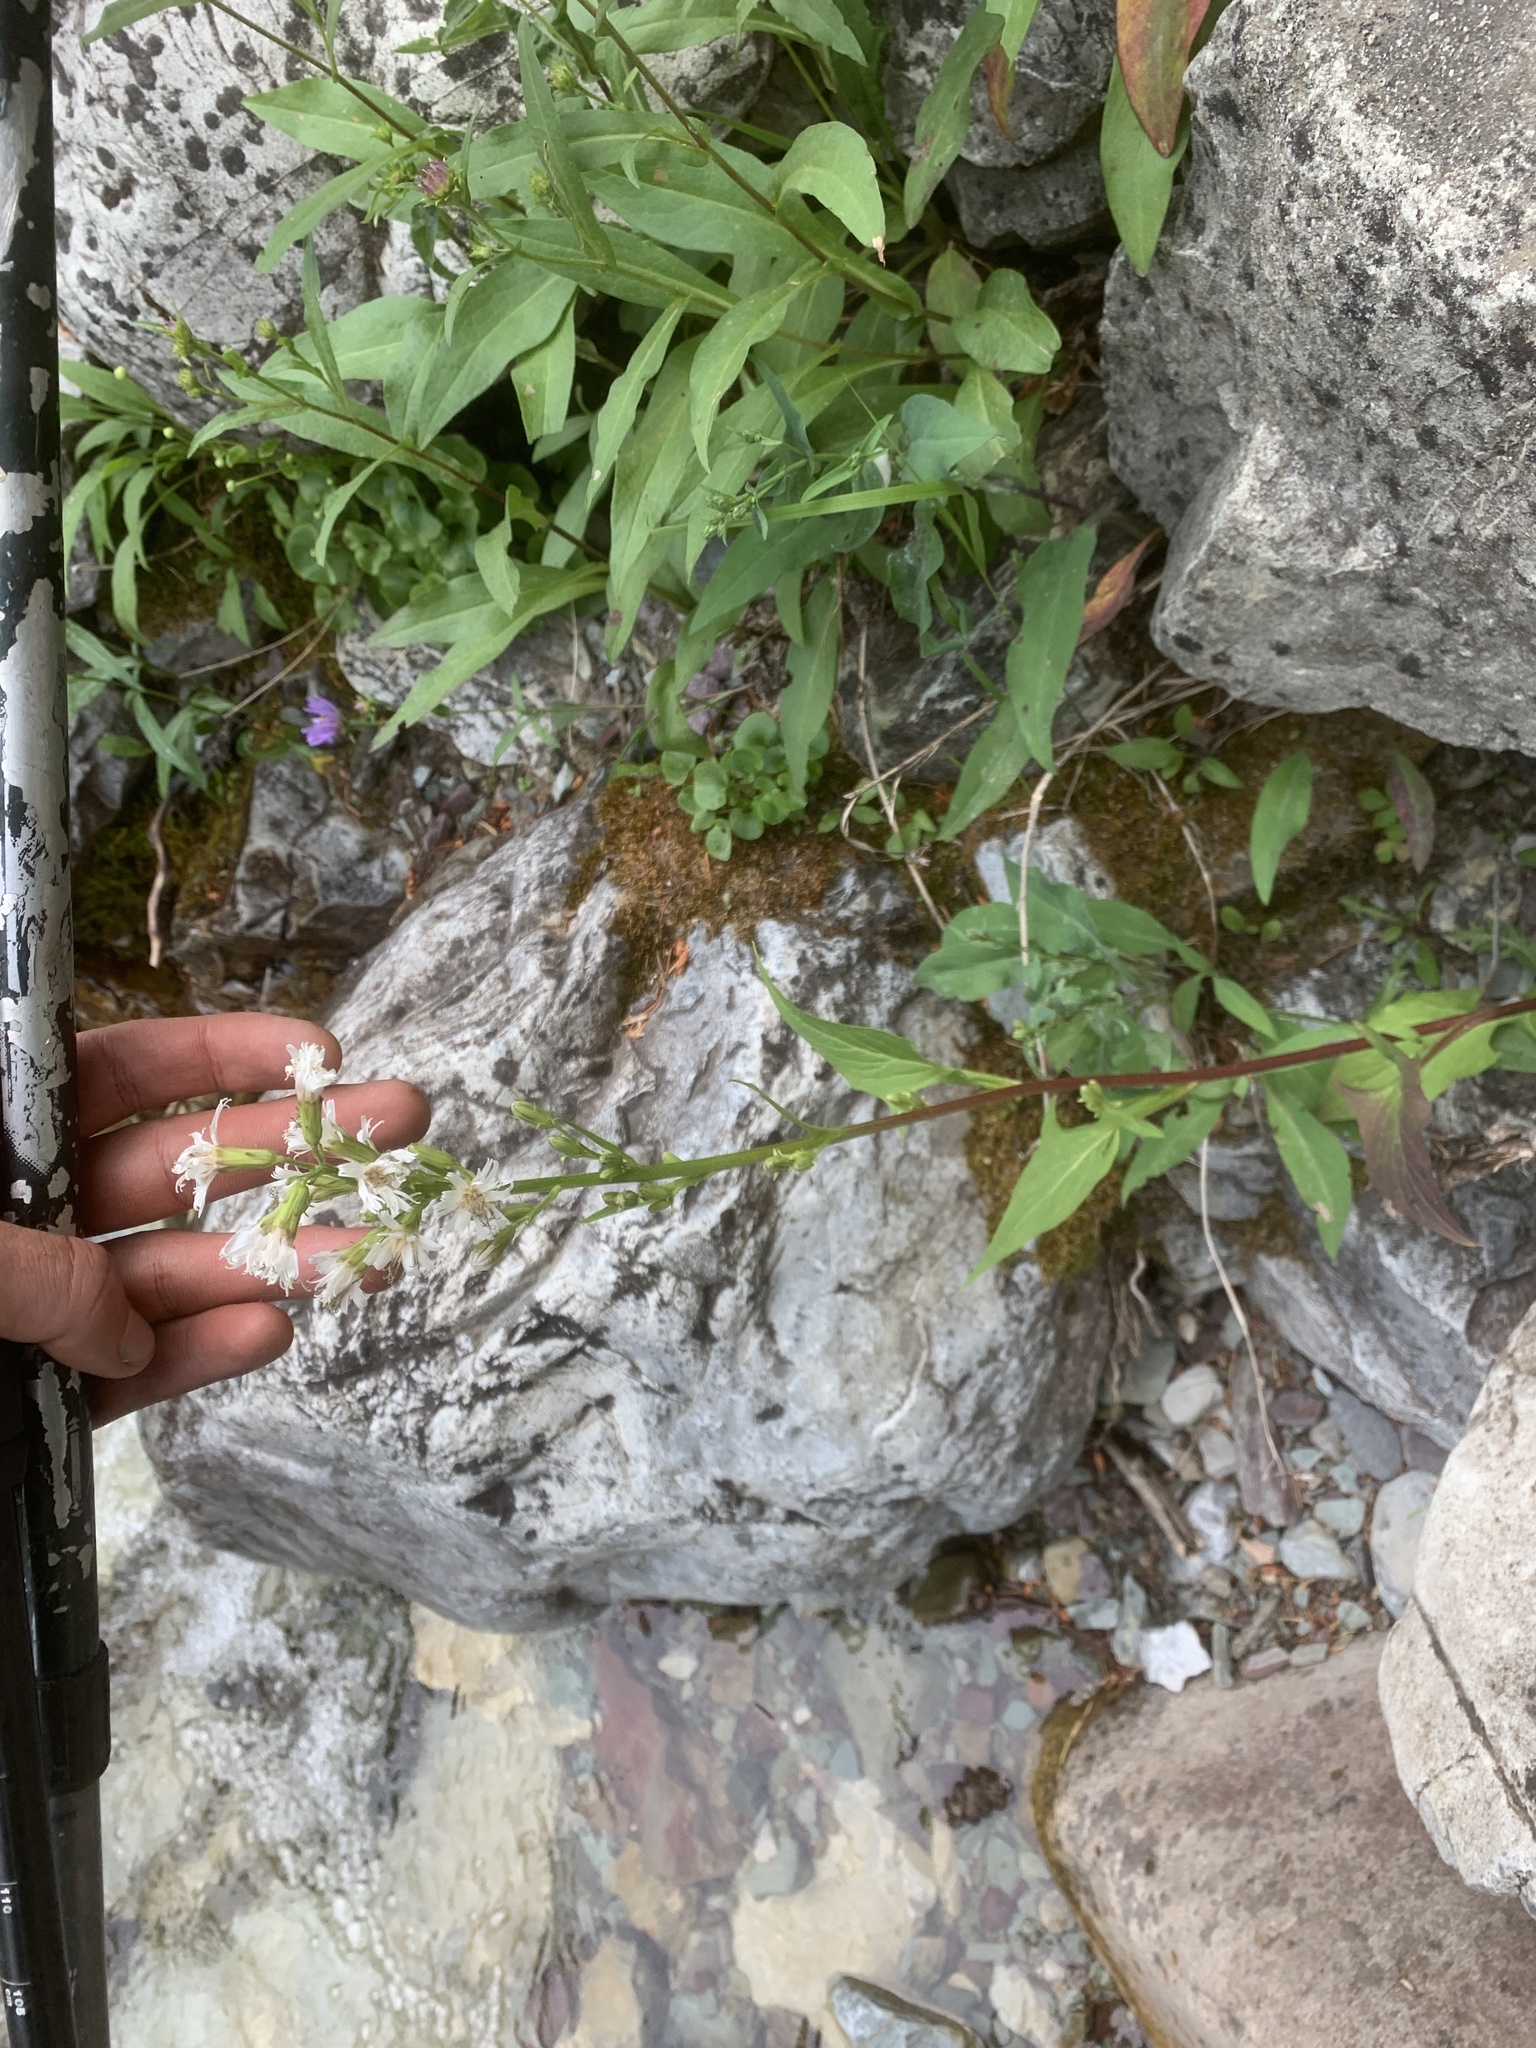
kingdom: Plantae
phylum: Tracheophyta
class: Magnoliopsida
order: Asterales
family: Asteraceae
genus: Nabalus
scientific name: Nabalus sagittatus
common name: Arrowleaf snakeroot
